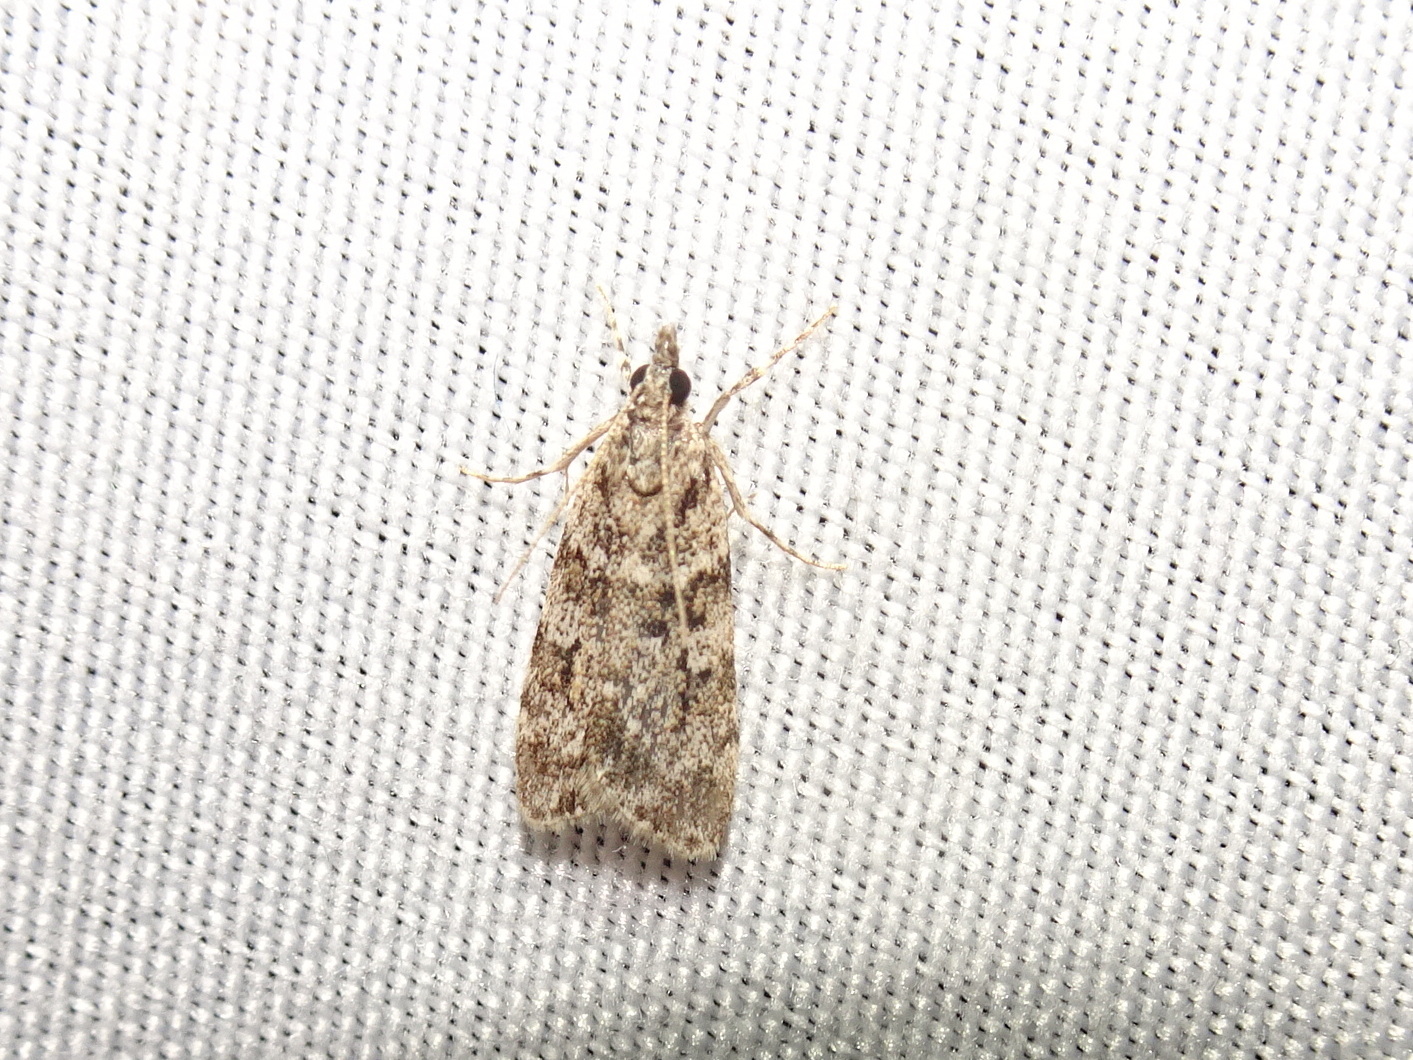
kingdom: Animalia
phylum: Arthropoda
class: Insecta
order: Lepidoptera
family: Crambidae
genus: Scoparia
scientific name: Scoparia biplagialis
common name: Double-striped scoparia moth
